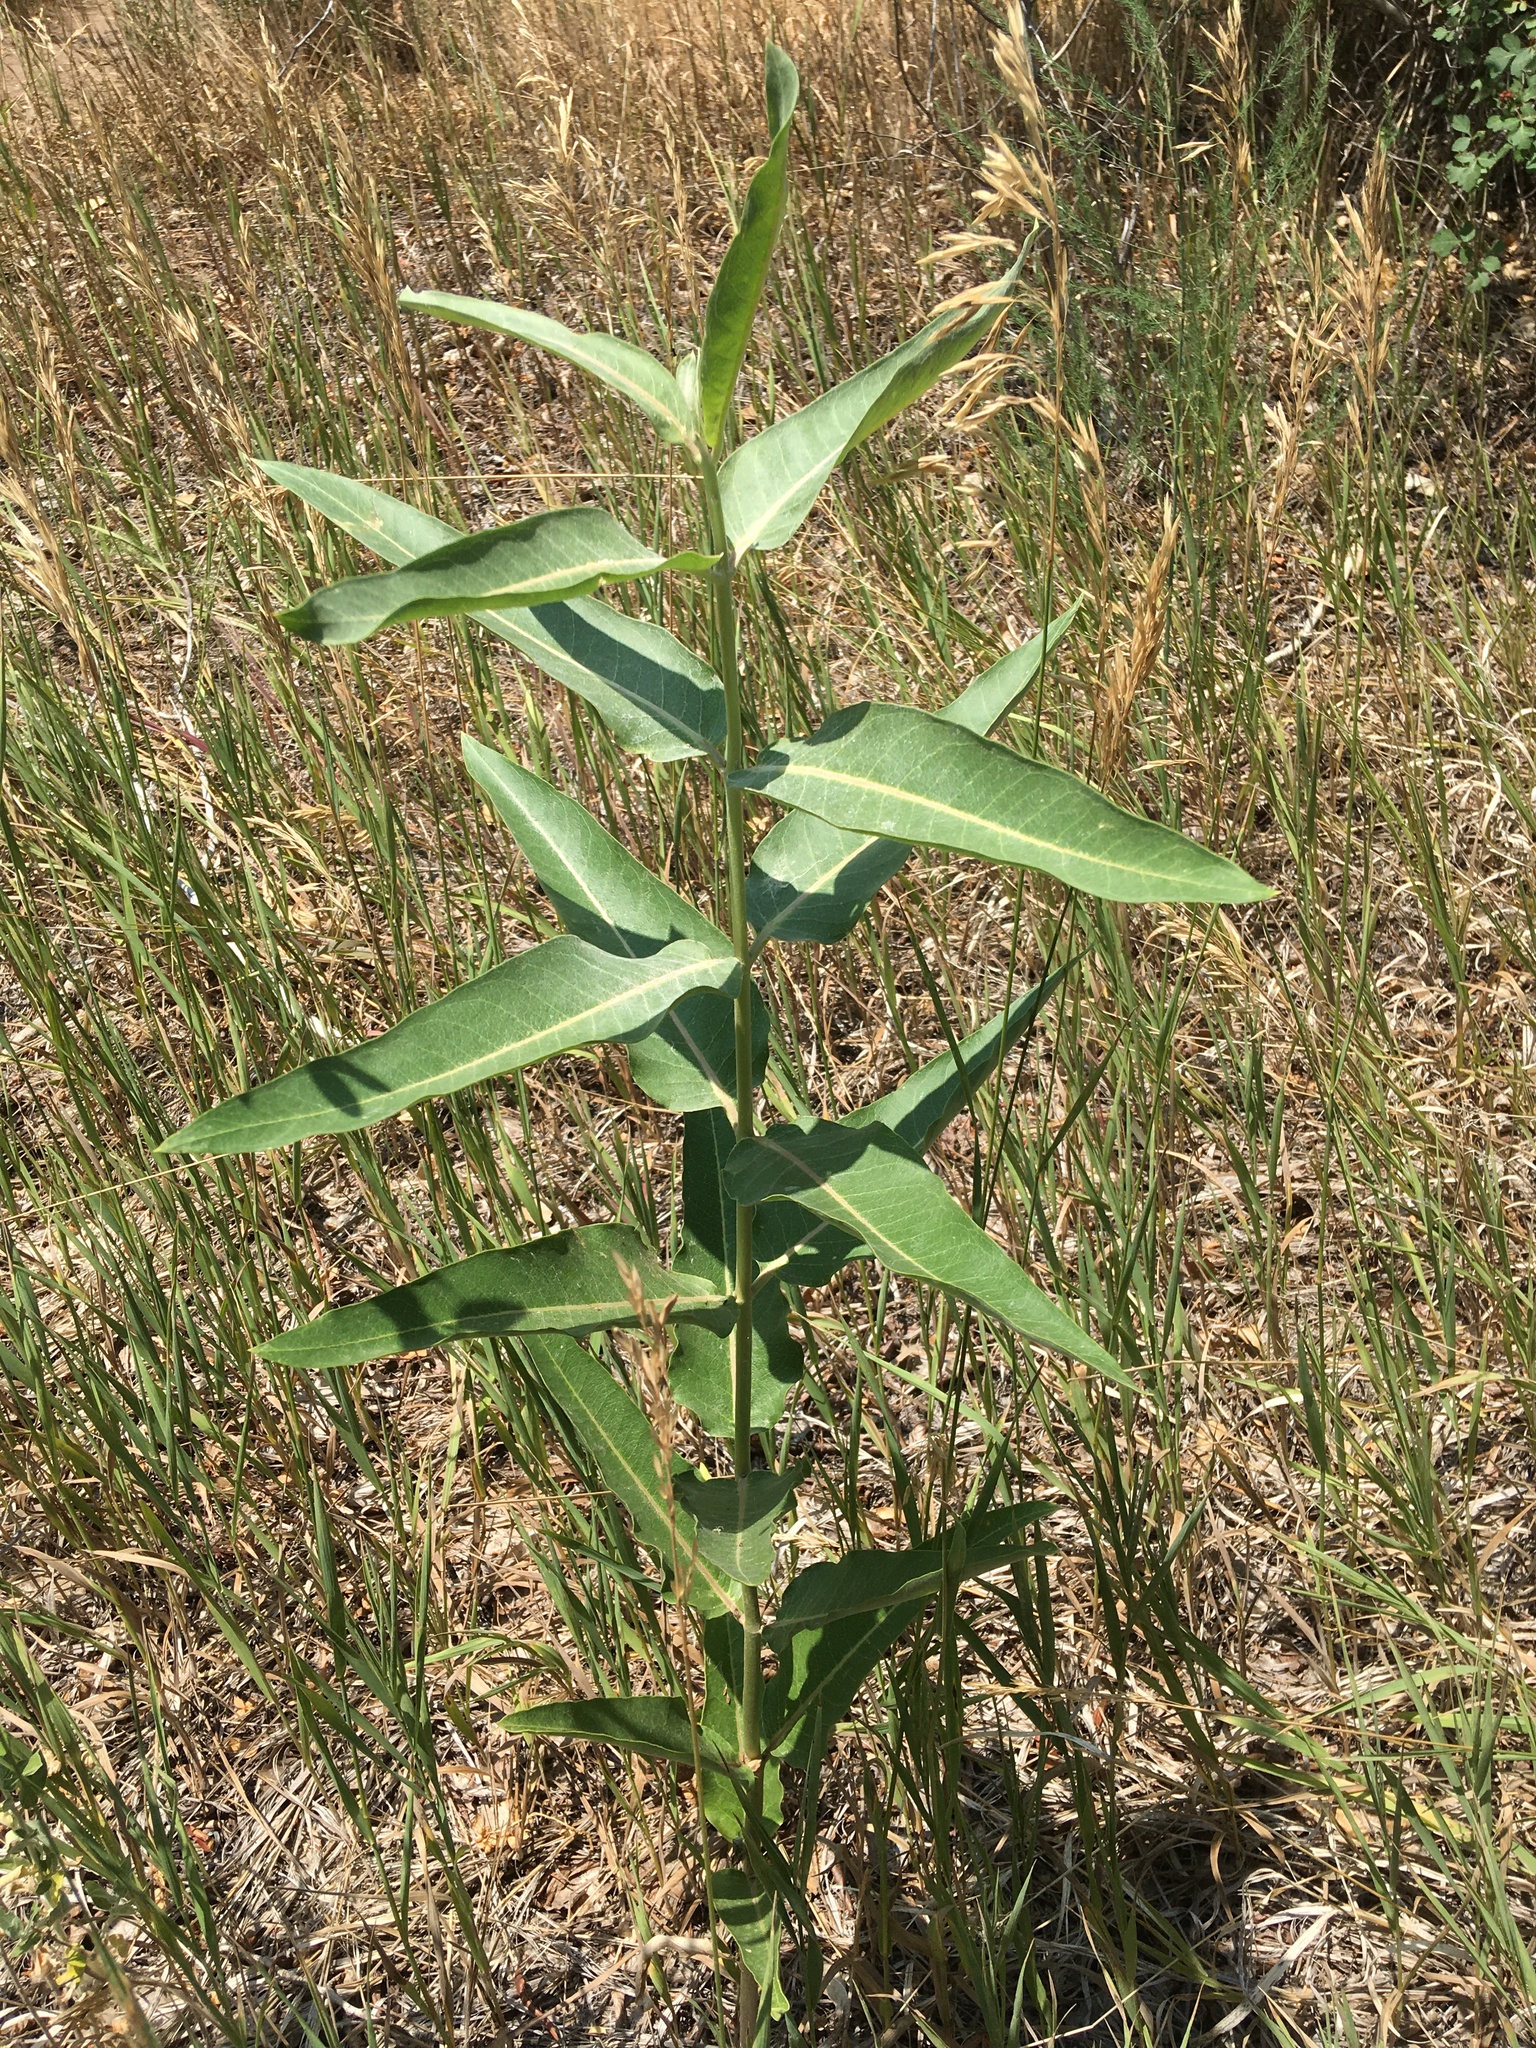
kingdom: Plantae
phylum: Tracheophyta
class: Magnoliopsida
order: Gentianales
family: Apocynaceae
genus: Asclepias
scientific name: Asclepias speciosa
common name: Showy milkweed
